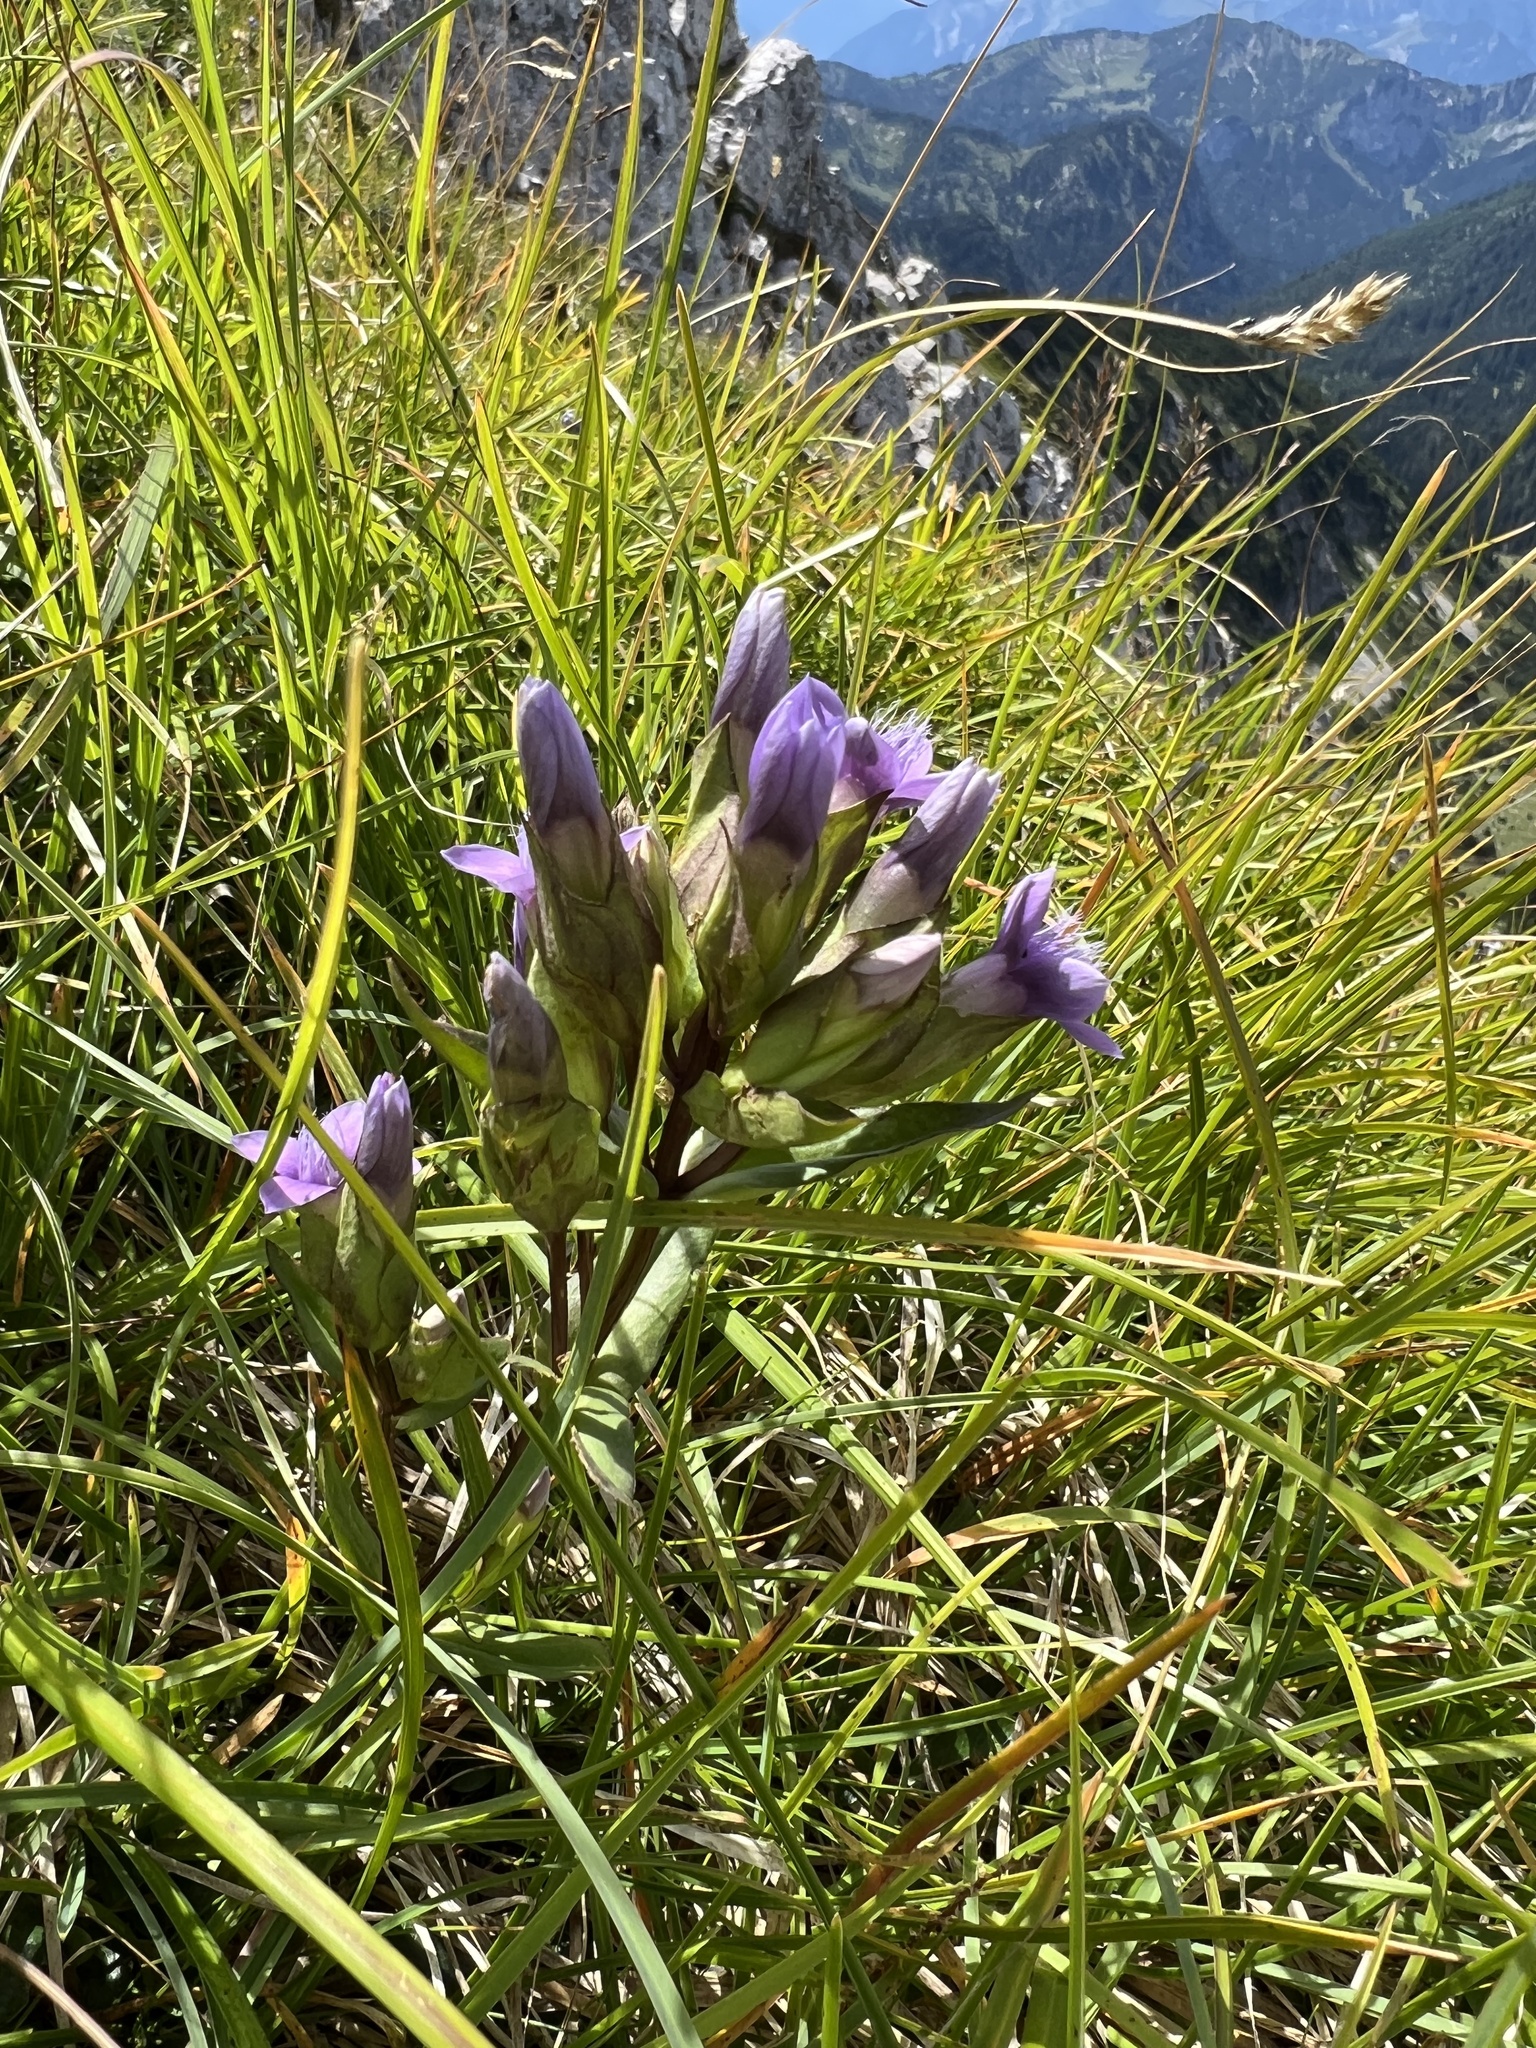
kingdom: Plantae
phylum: Tracheophyta
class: Magnoliopsida
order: Gentianales
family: Gentianaceae
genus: Gentianella
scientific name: Gentianella obtusifolia
